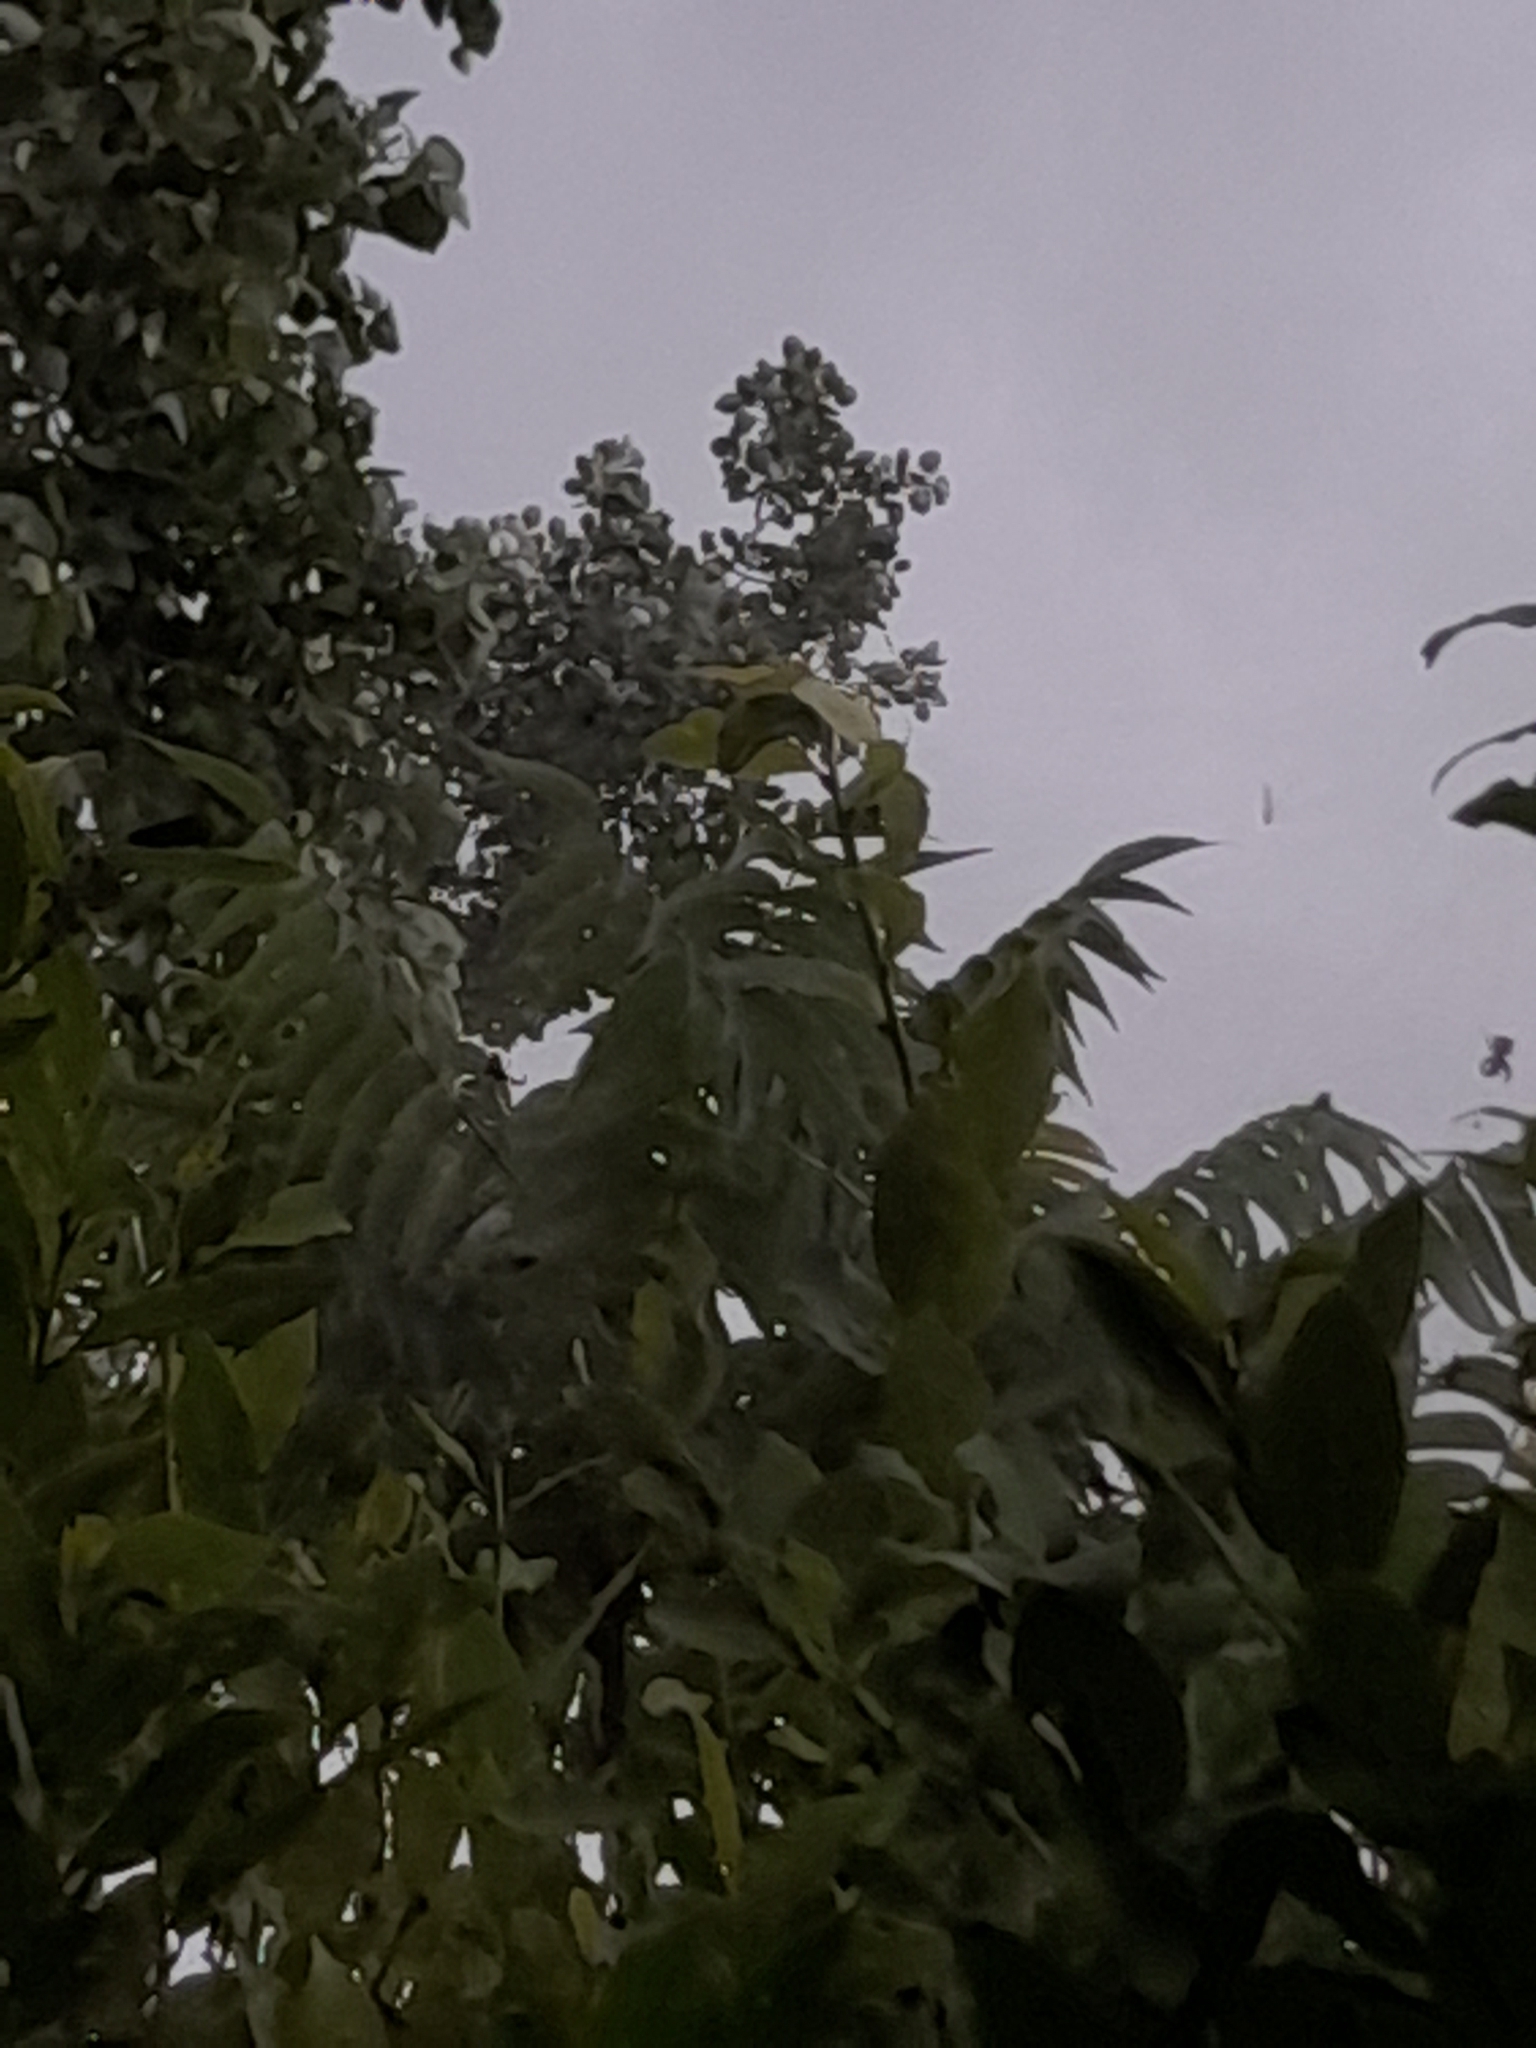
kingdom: Plantae
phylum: Tracheophyta
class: Magnoliopsida
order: Sapindales
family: Simaroubaceae
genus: Ailanthus
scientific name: Ailanthus altissima
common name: Tree-of-heaven
